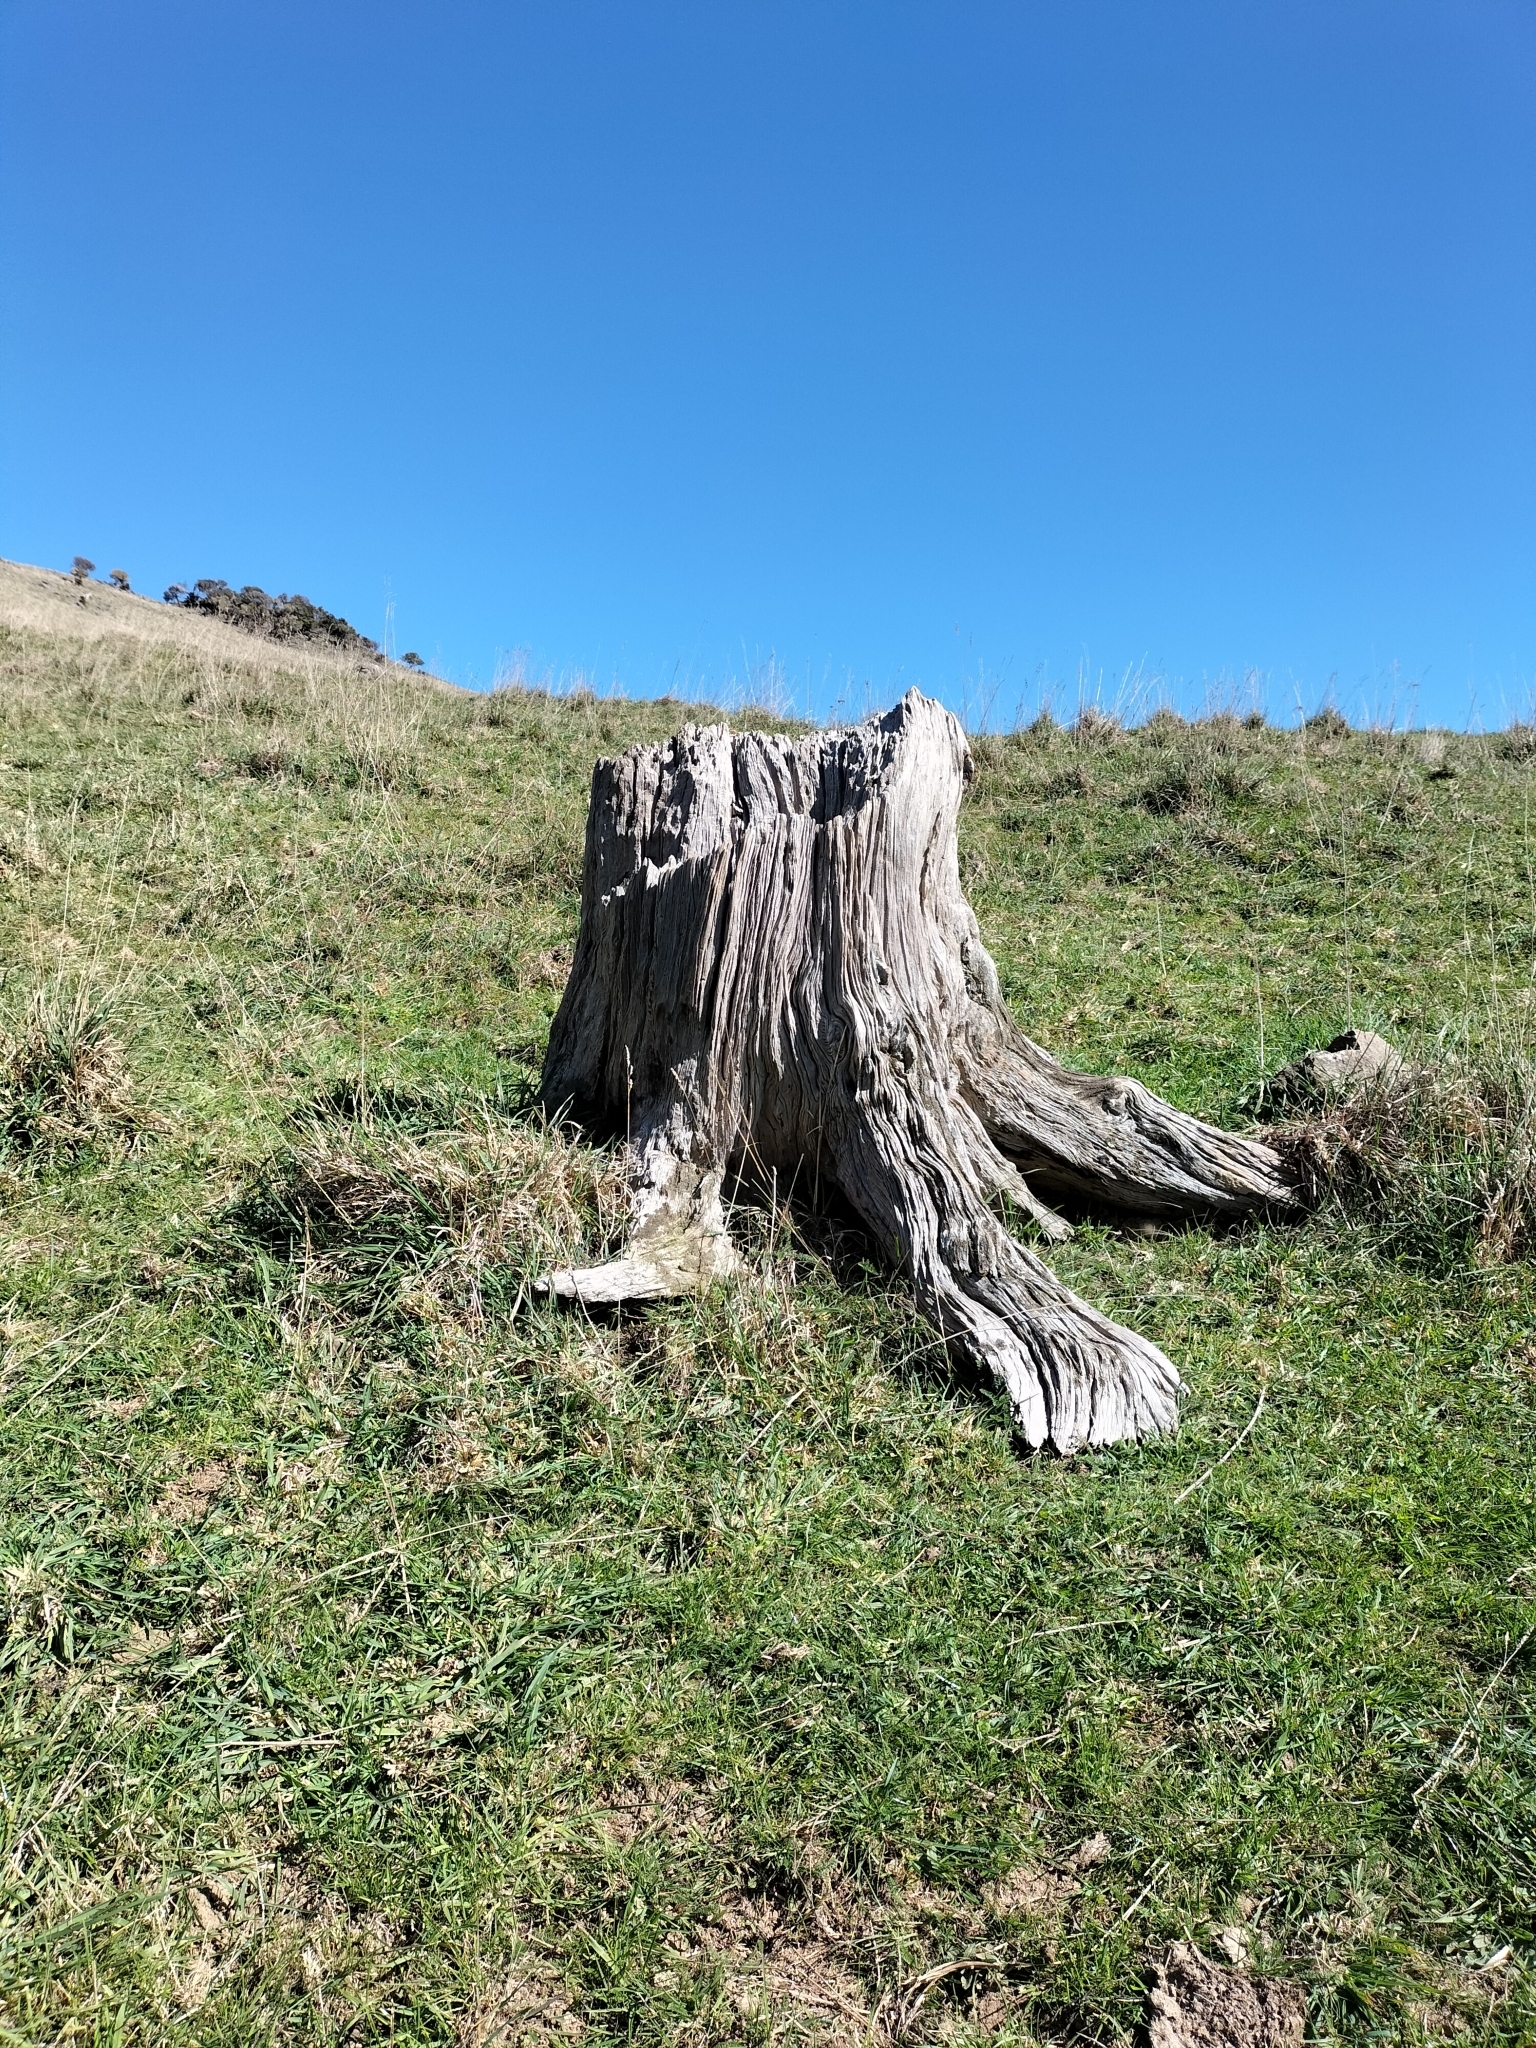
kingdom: Plantae
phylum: Tracheophyta
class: Pinopsida
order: Pinales
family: Podocarpaceae
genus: Podocarpus
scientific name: Podocarpus totara
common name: Totara
